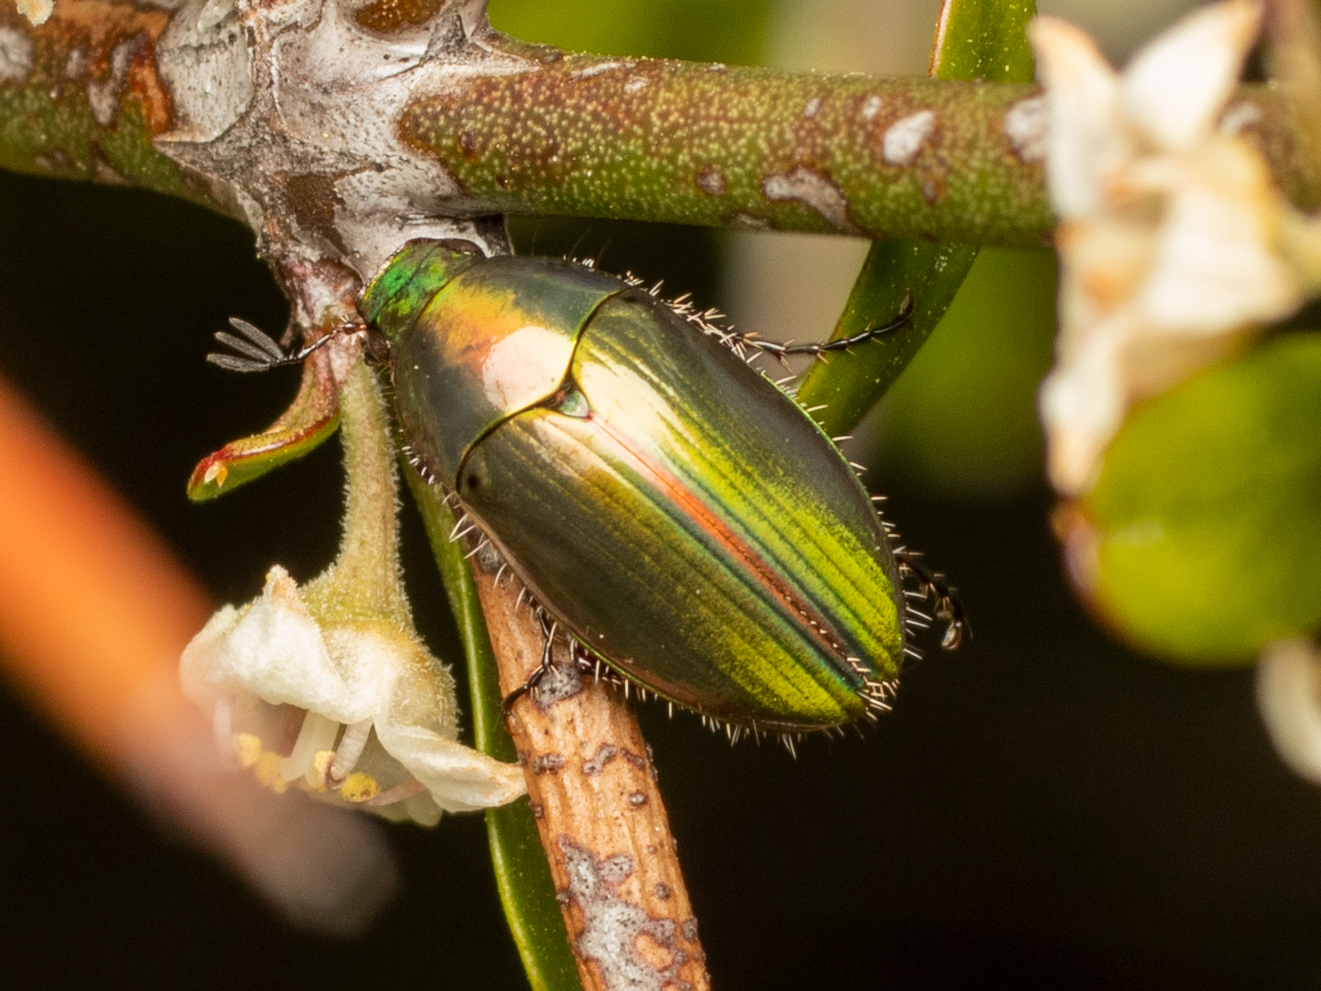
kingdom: Animalia
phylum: Arthropoda
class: Insecta
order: Coleoptera
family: Scarabaeidae
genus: Pyronota
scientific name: Pyronota edwardsi
